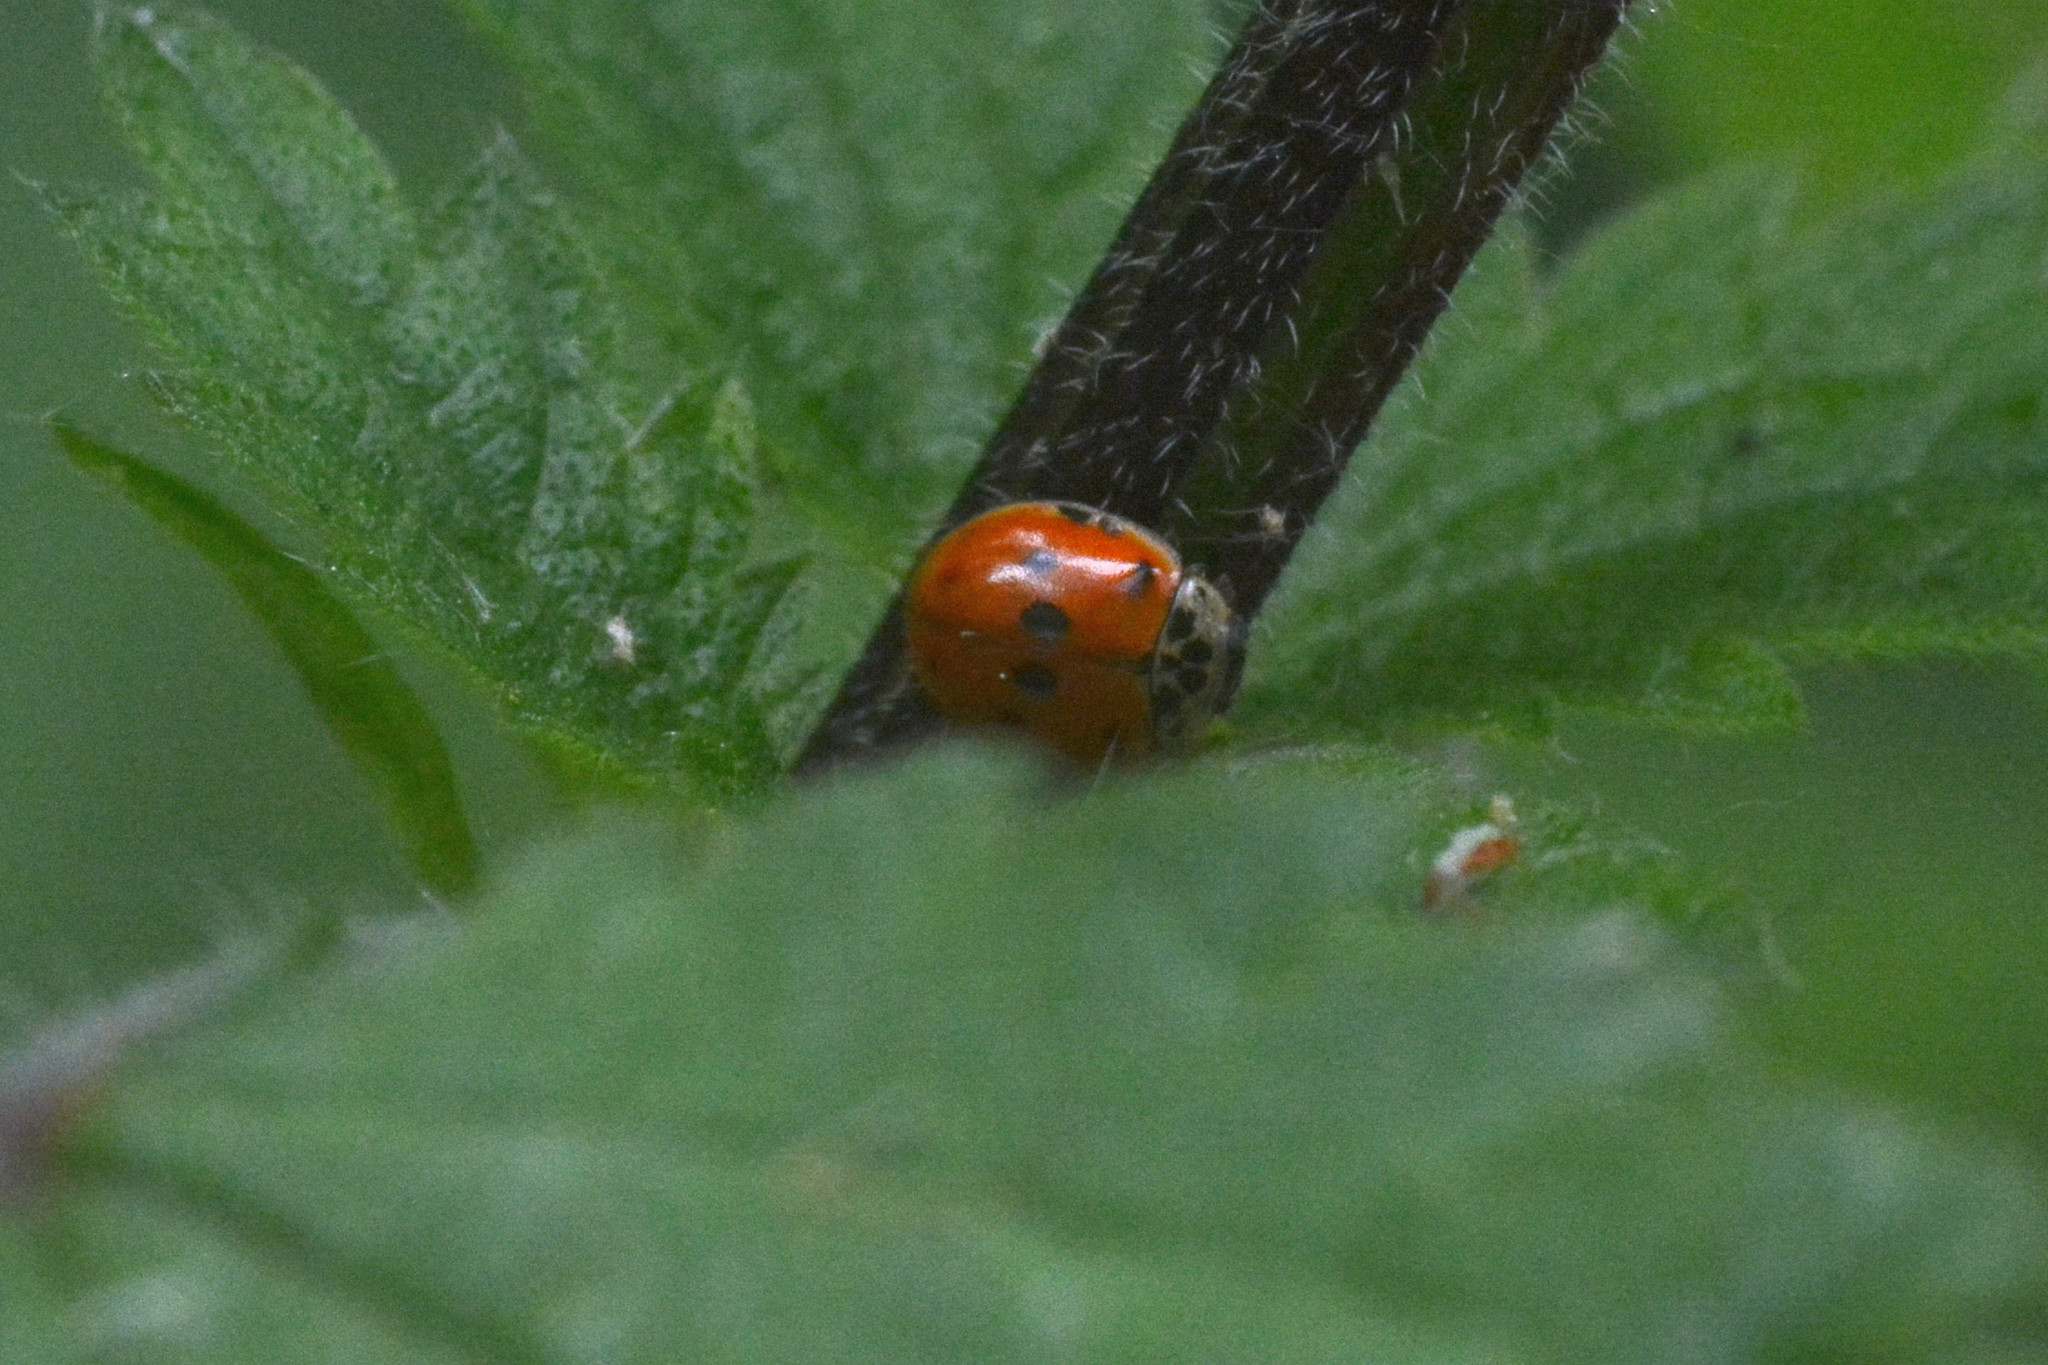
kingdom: Animalia
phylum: Arthropoda
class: Insecta
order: Coleoptera
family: Coccinellidae
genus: Adalia
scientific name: Adalia decempunctata
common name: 10-spot ladybird
